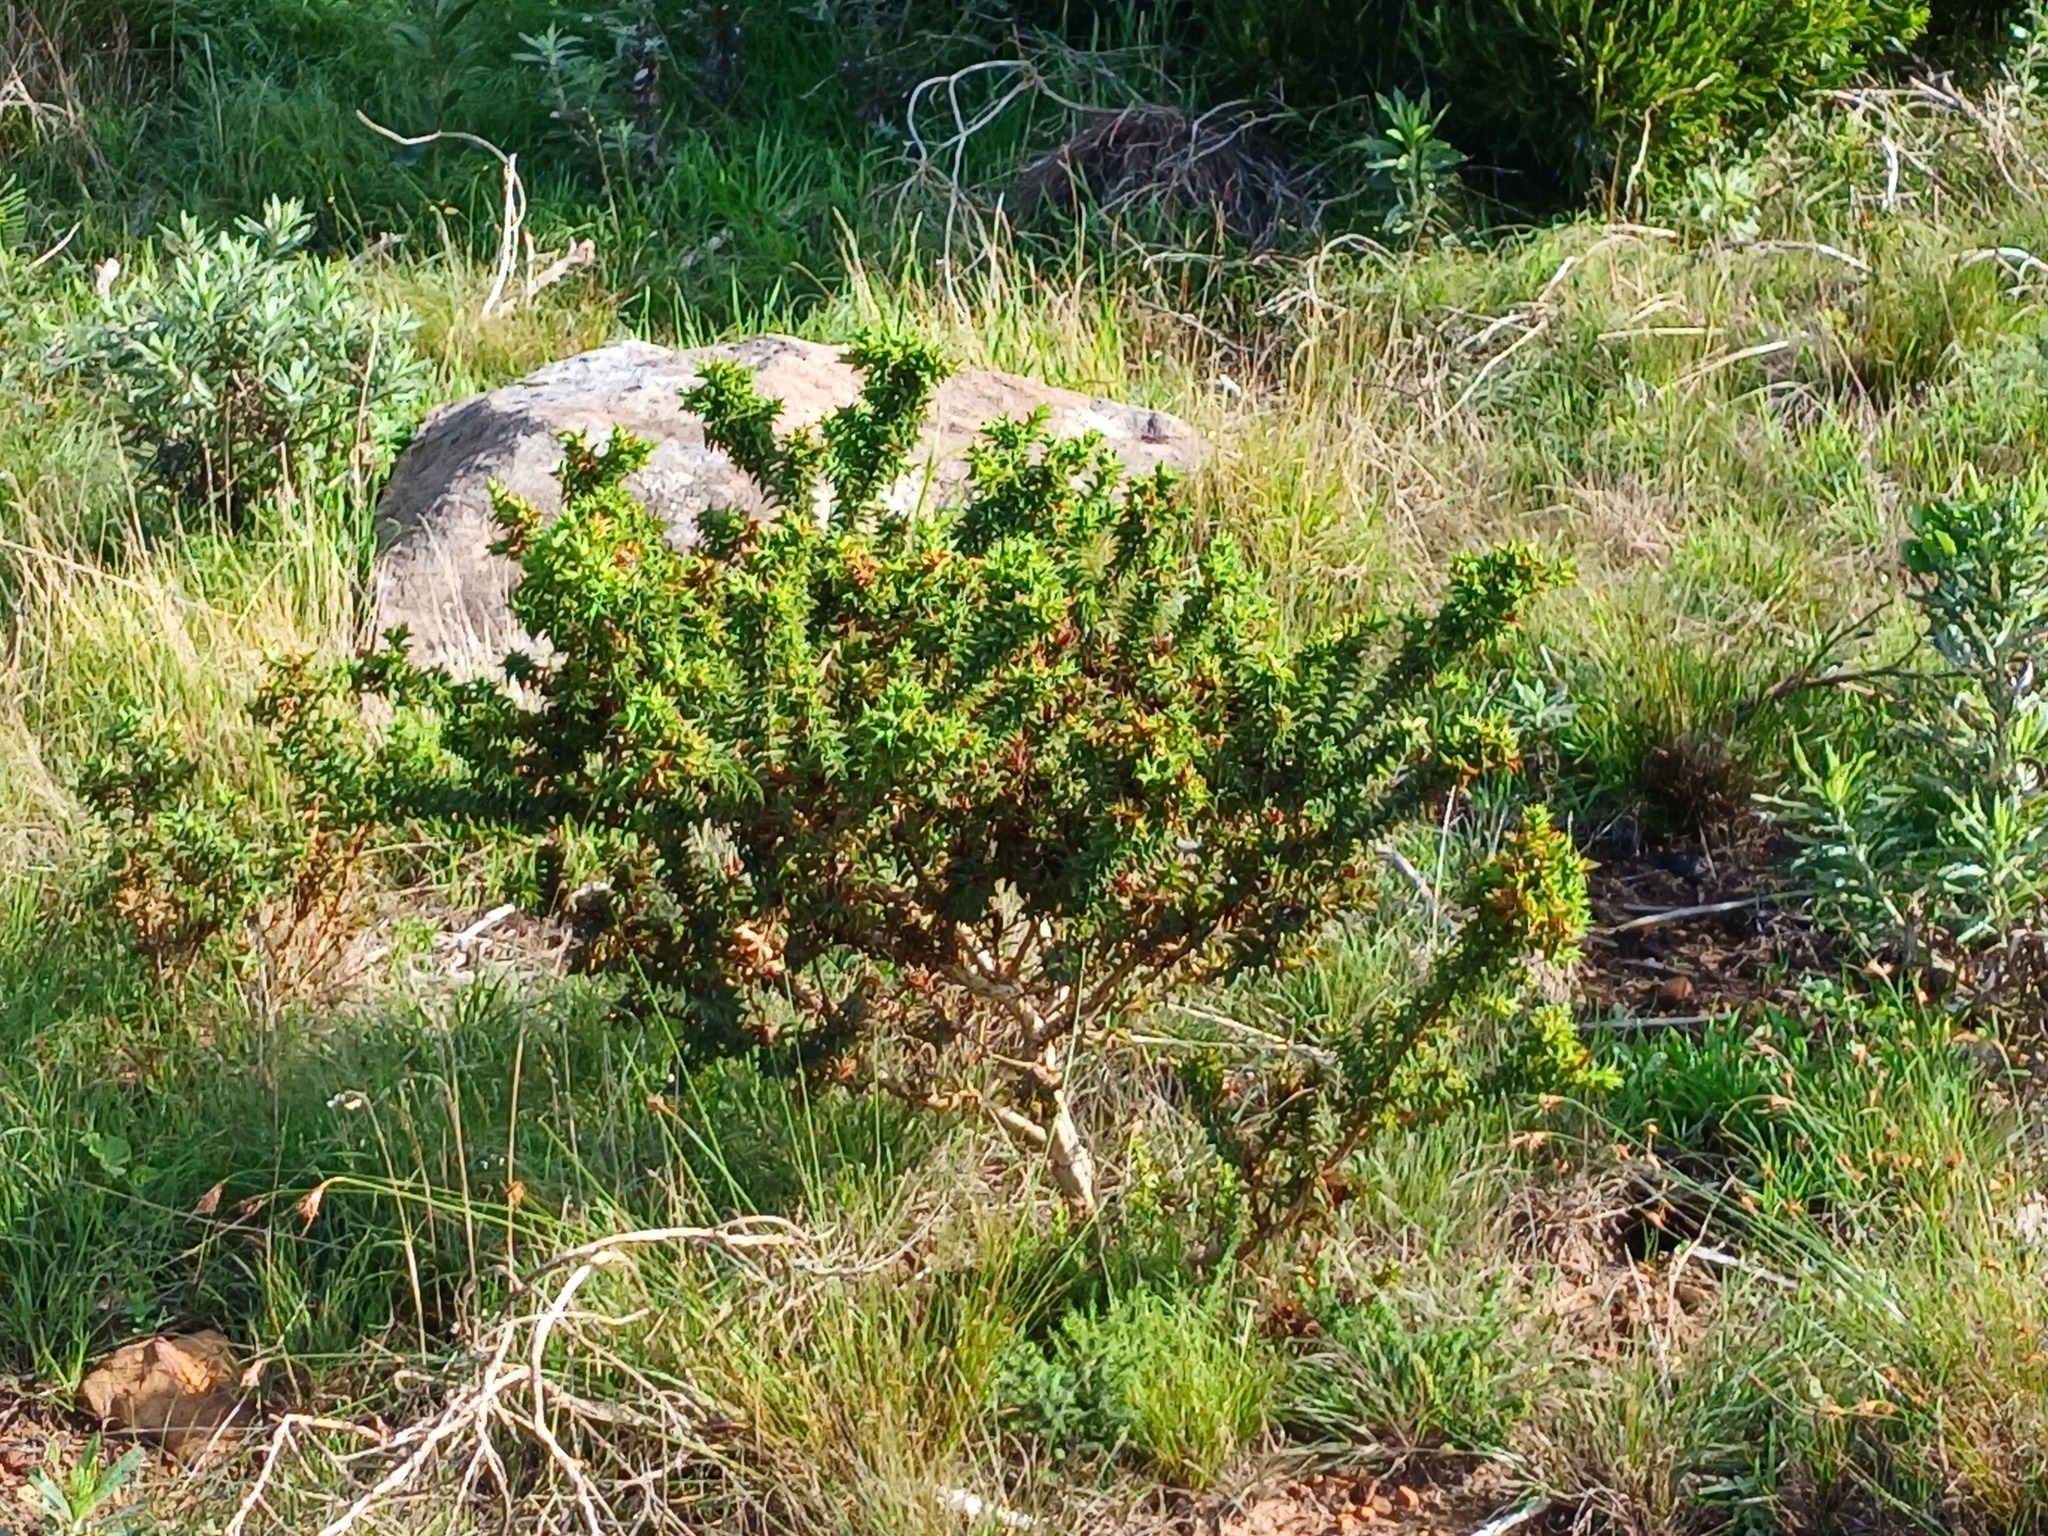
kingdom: Plantae
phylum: Tracheophyta
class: Magnoliopsida
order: Fabales
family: Fabaceae
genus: Aspalathus
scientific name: Aspalathus cordata
